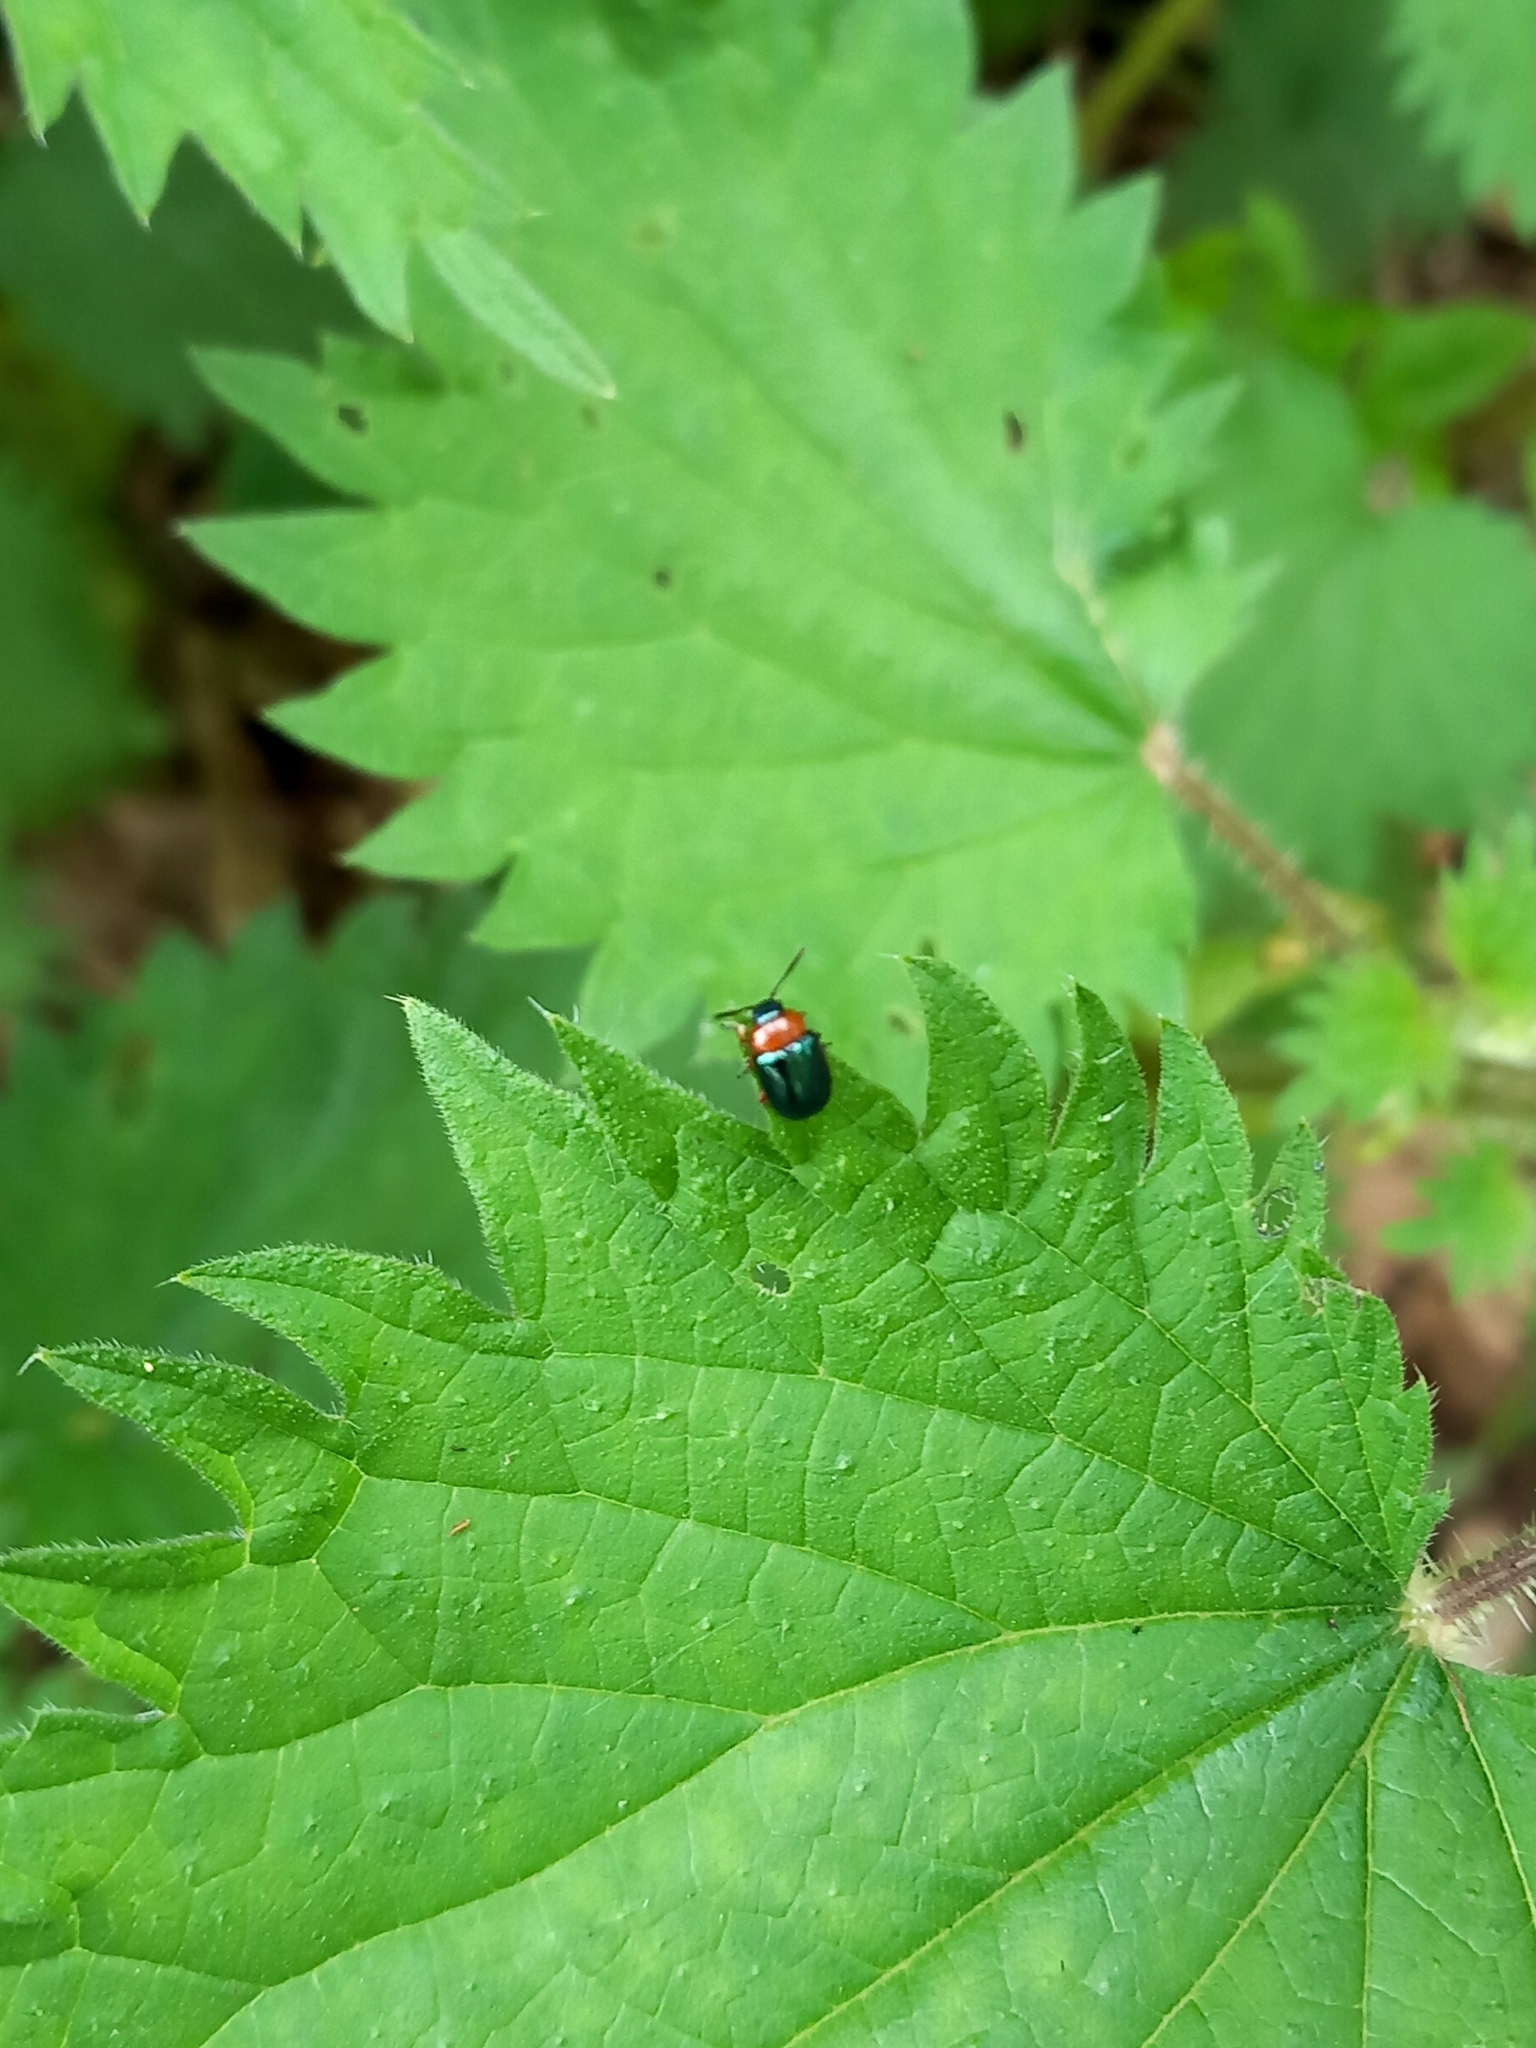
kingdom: Animalia
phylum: Arthropoda
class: Insecta
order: Coleoptera
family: Chrysomelidae
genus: Gastrophysa
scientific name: Gastrophysa polygoni
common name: Knotweed leaf beetle
